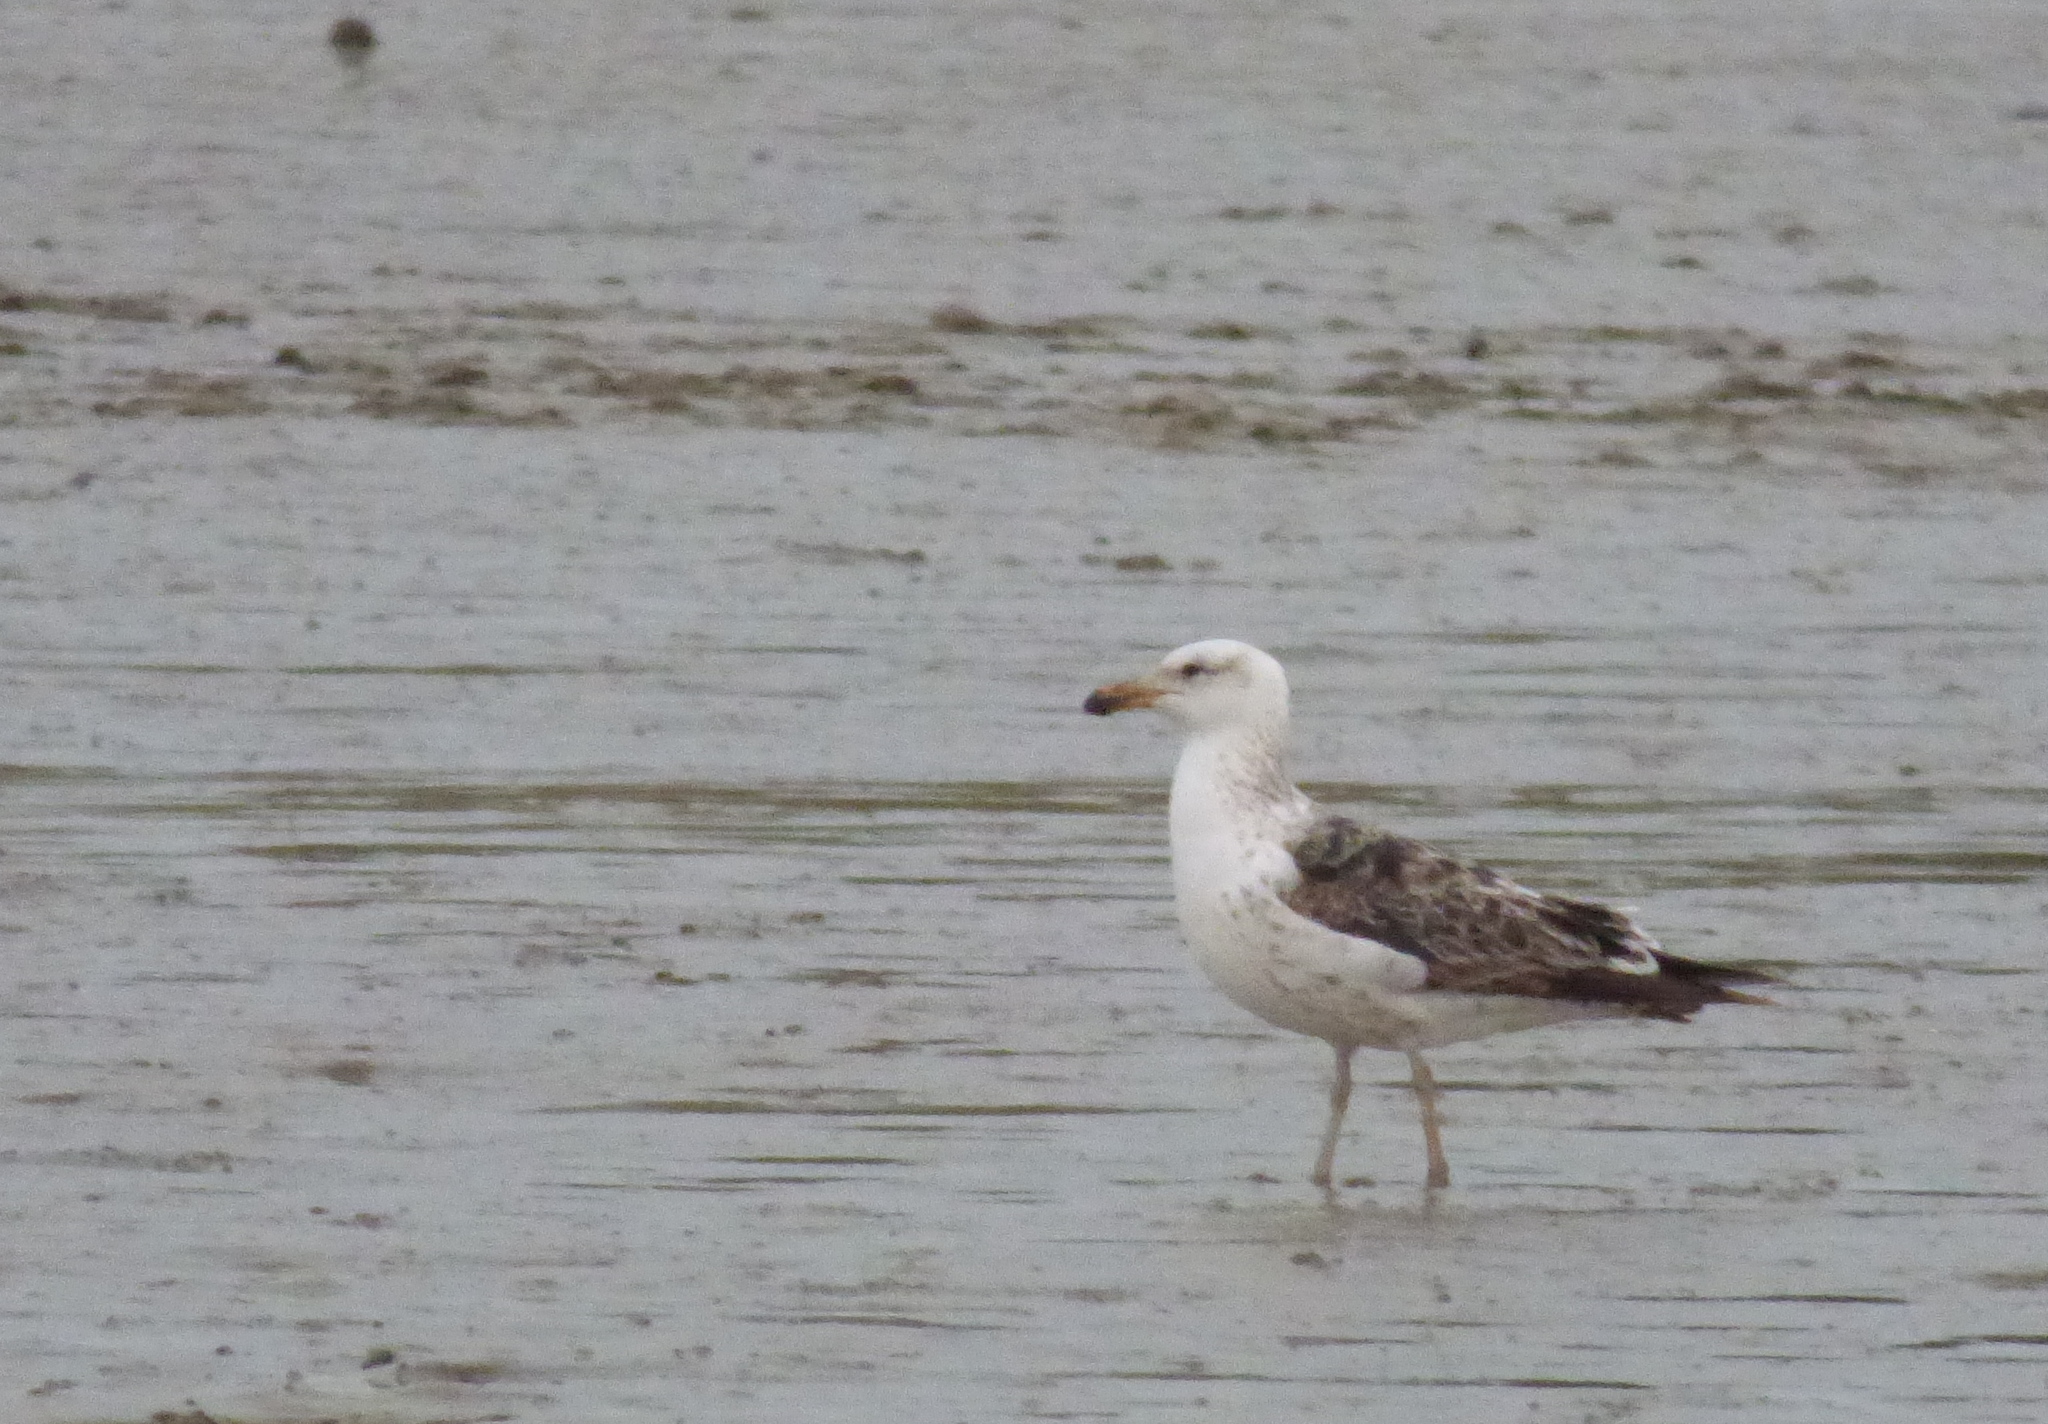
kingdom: Animalia
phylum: Chordata
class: Aves
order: Charadriiformes
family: Laridae
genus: Larus
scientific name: Larus dominicanus
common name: Kelp gull
